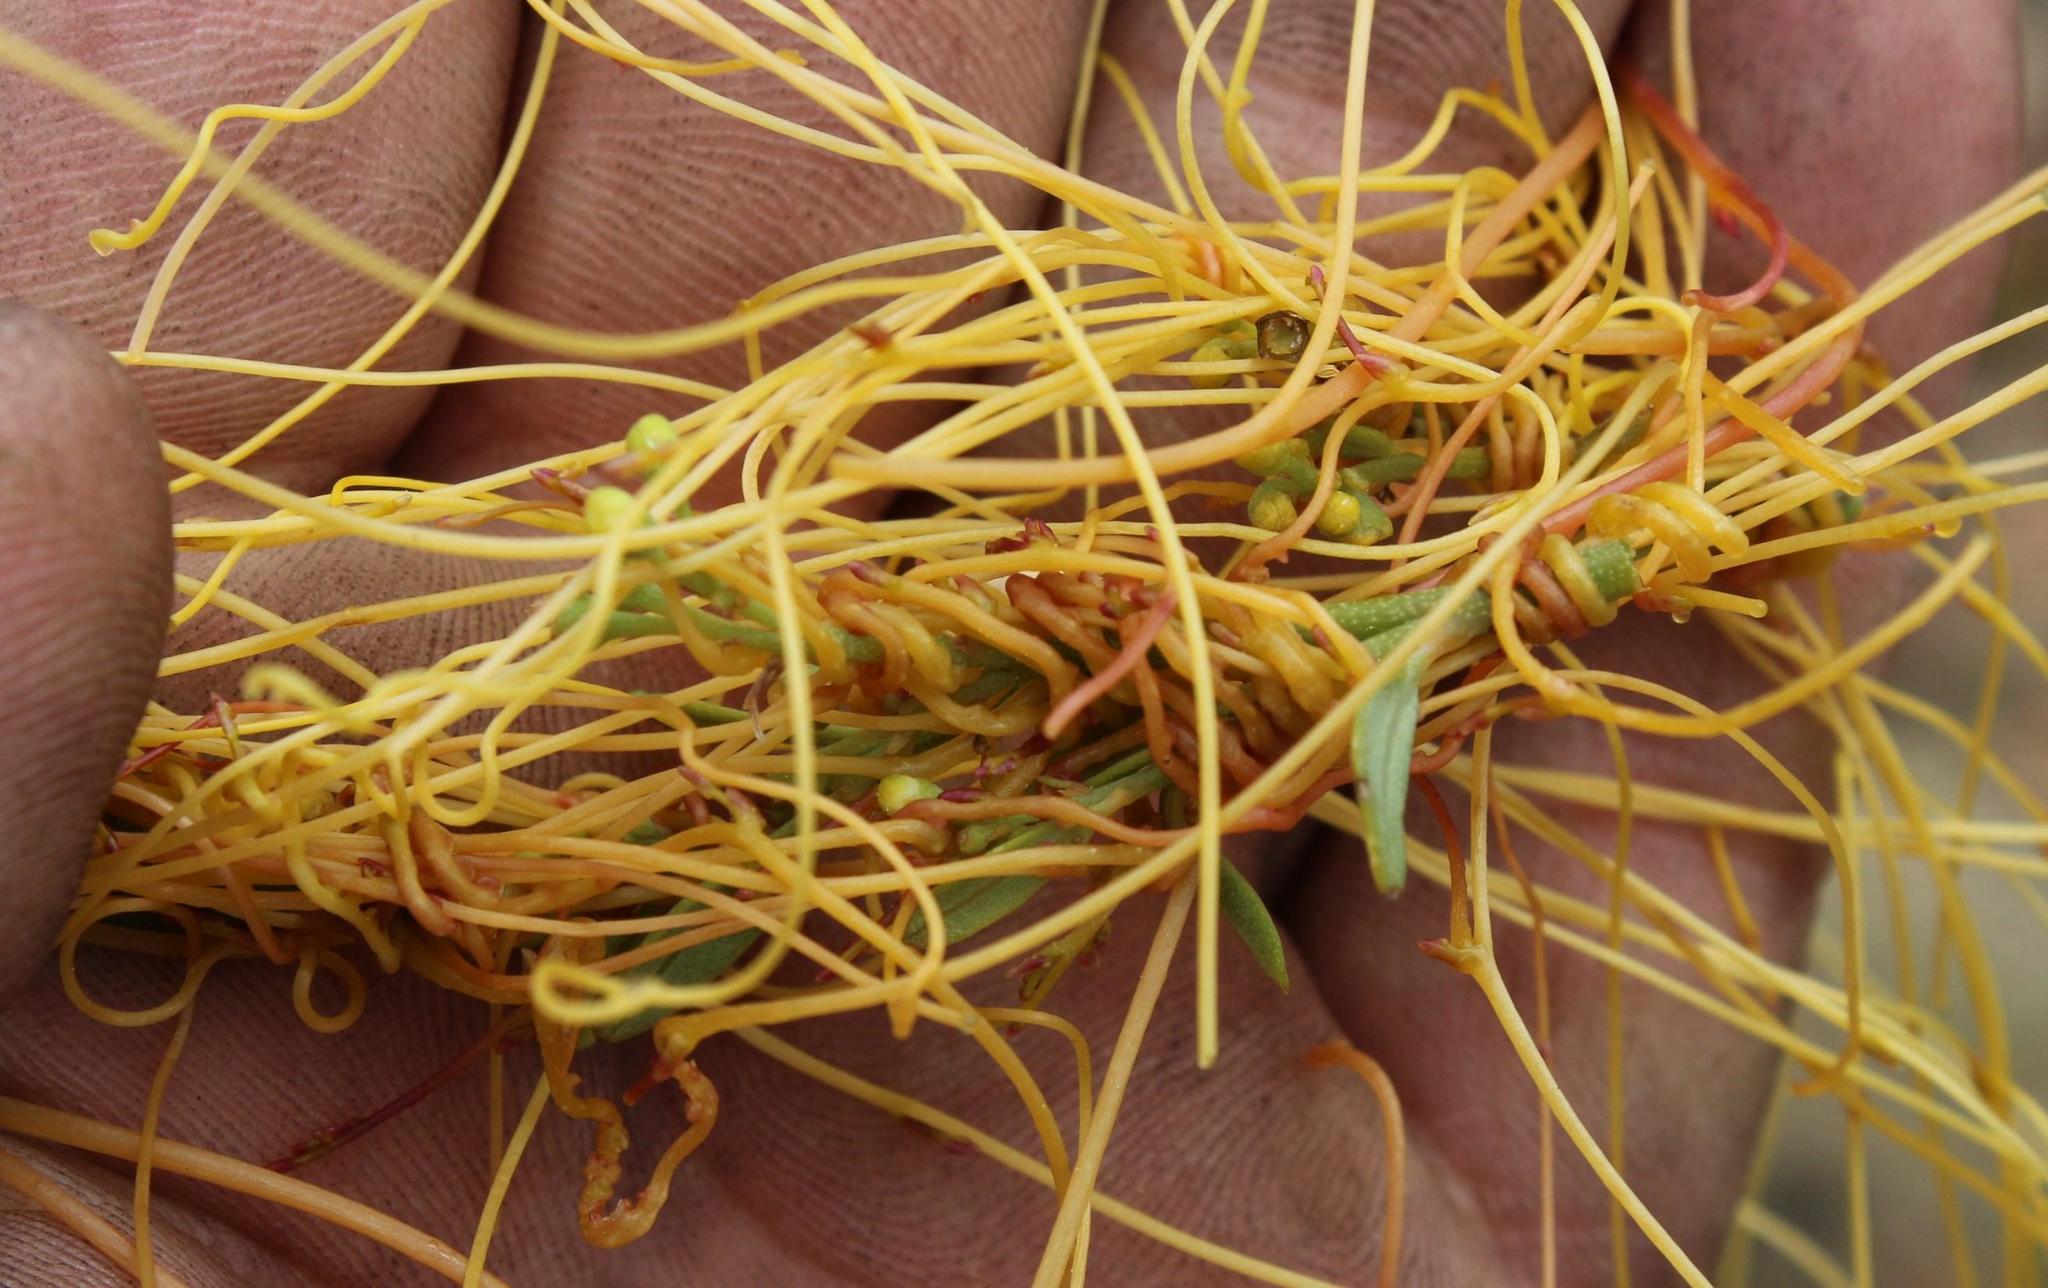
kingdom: Plantae
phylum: Tracheophyta
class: Magnoliopsida
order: Laurales
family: Lauraceae
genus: Cassytha
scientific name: Cassytha ciliolata
